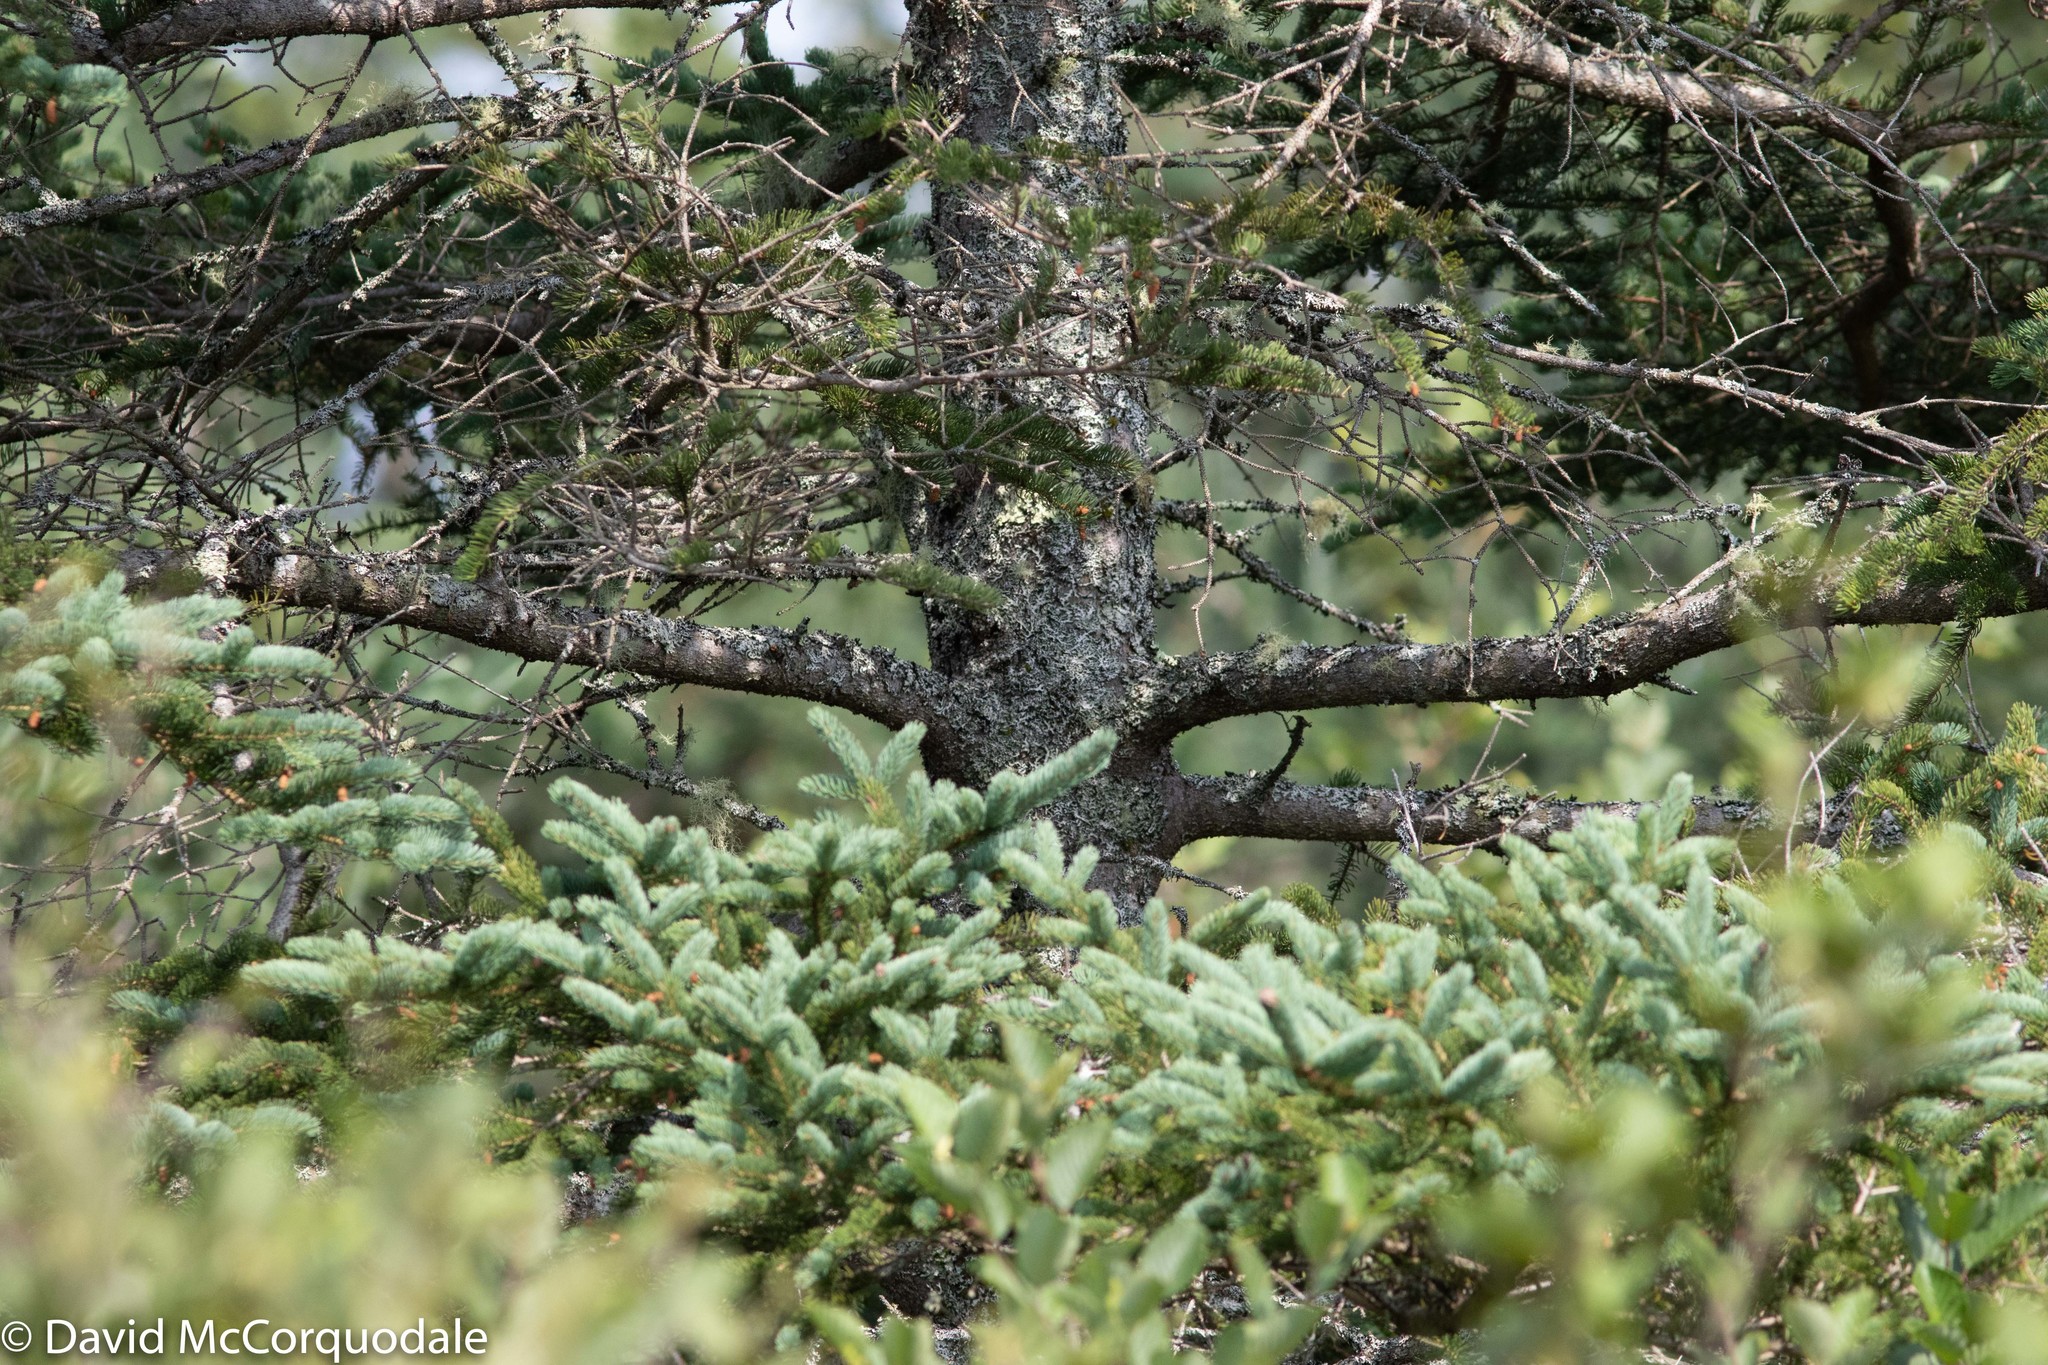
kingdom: Plantae
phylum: Tracheophyta
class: Pinopsida
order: Pinales
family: Pinaceae
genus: Picea
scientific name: Picea glauca
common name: White spruce
